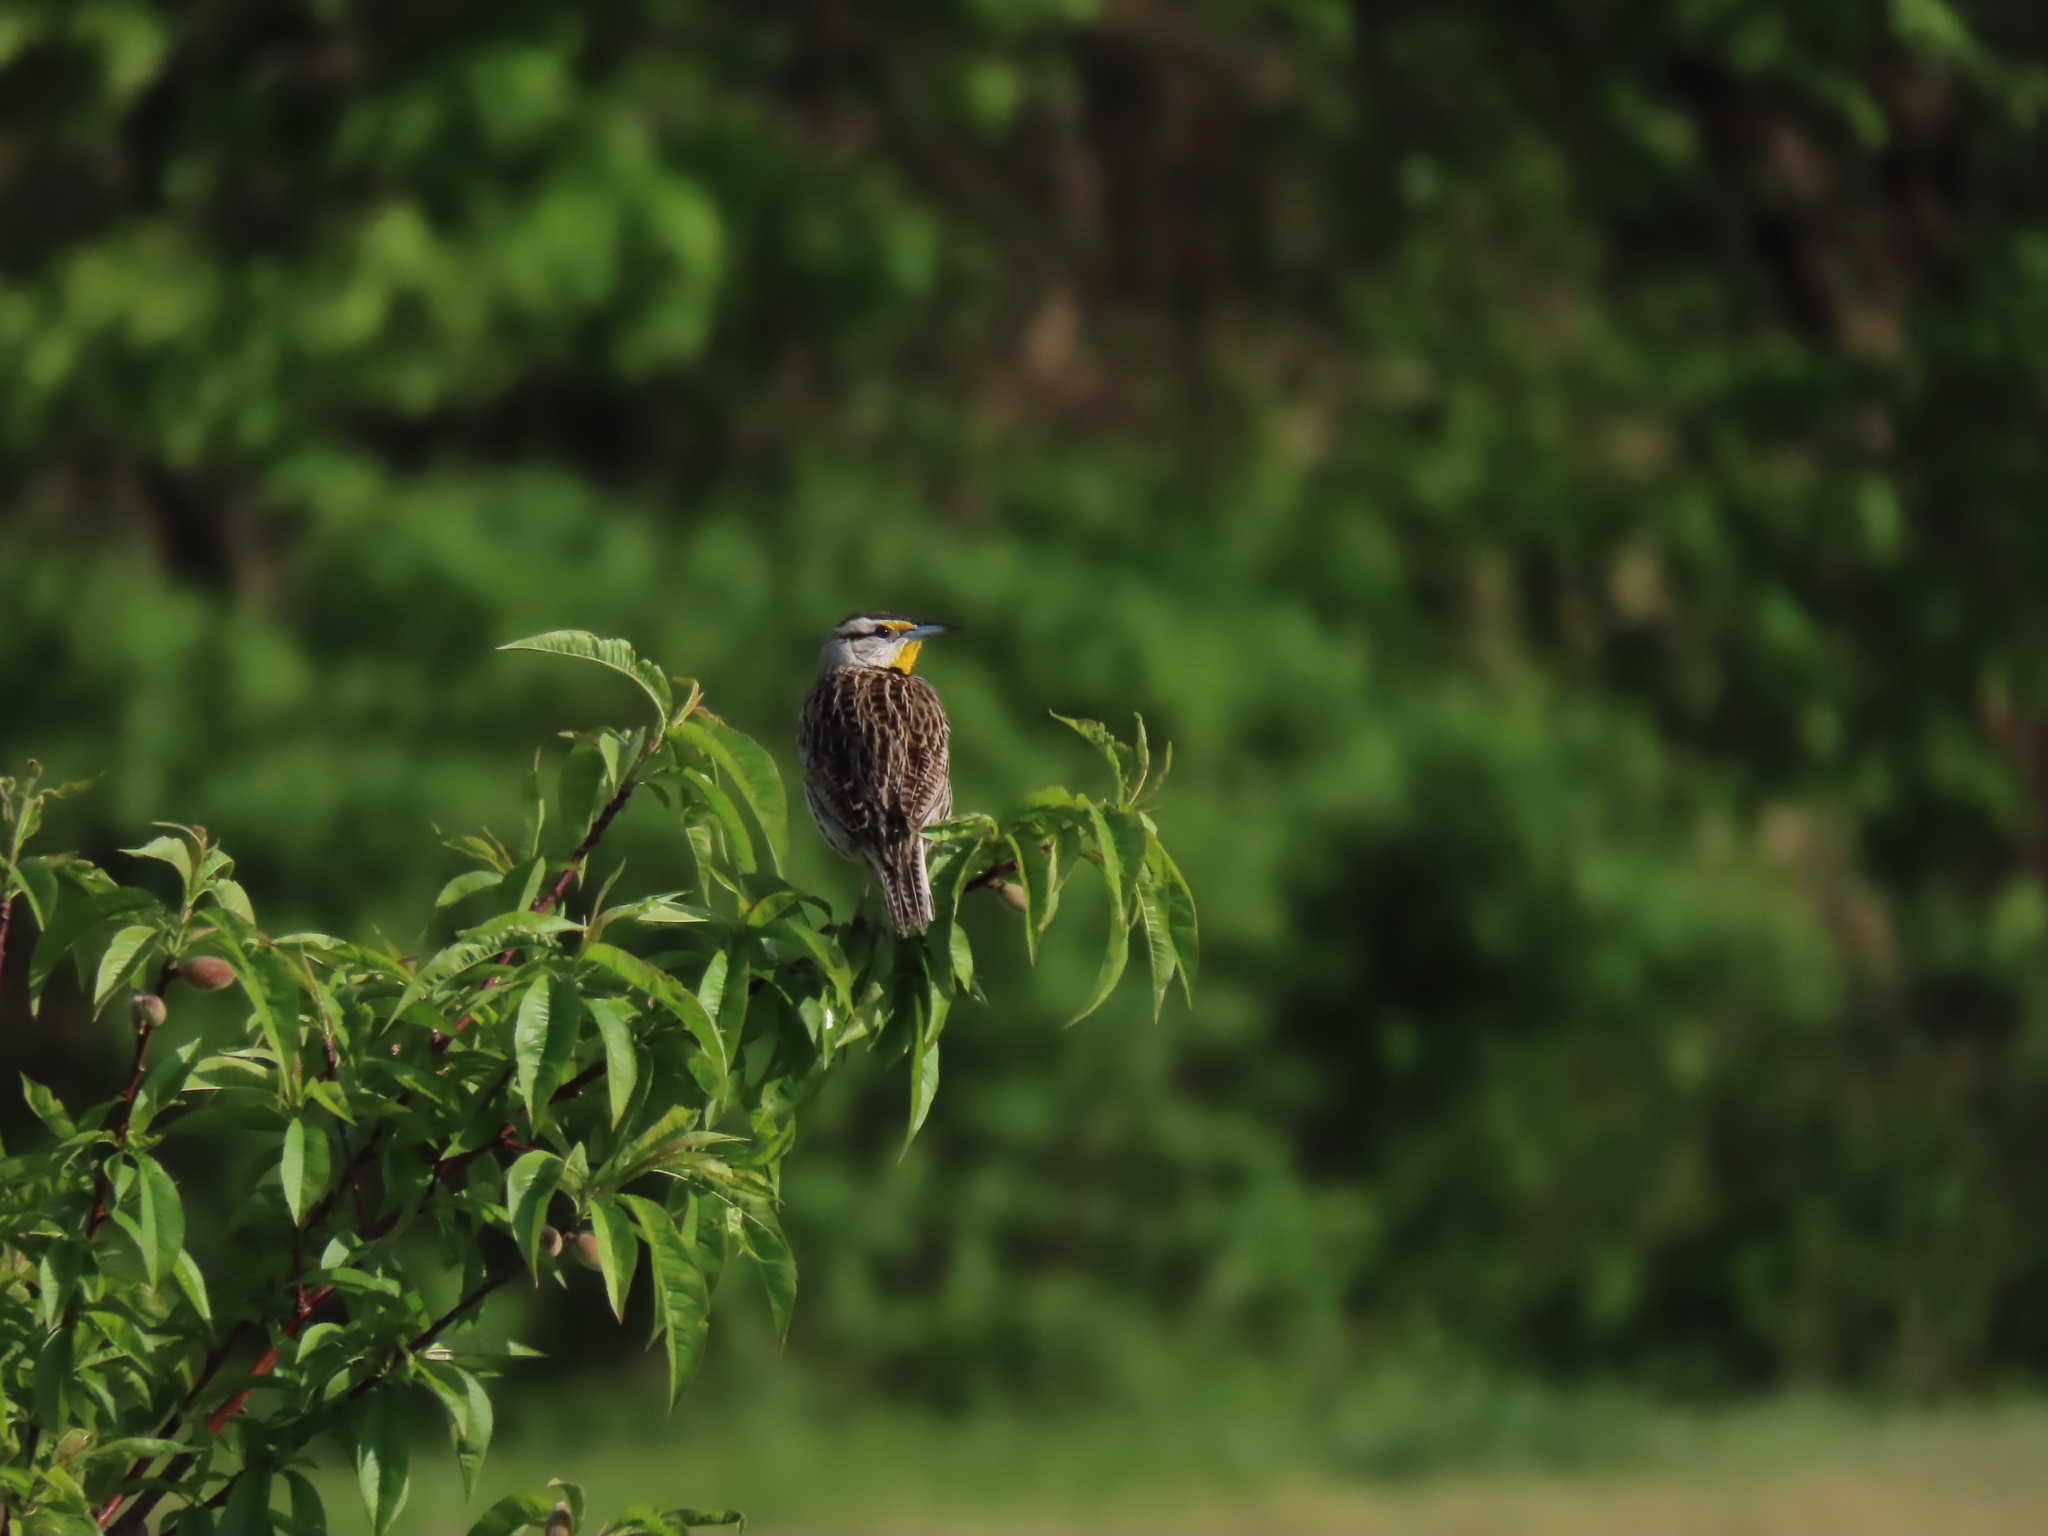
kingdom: Animalia
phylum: Chordata
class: Aves
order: Passeriformes
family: Icteridae
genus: Sturnella
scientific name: Sturnella magna
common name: Eastern meadowlark
